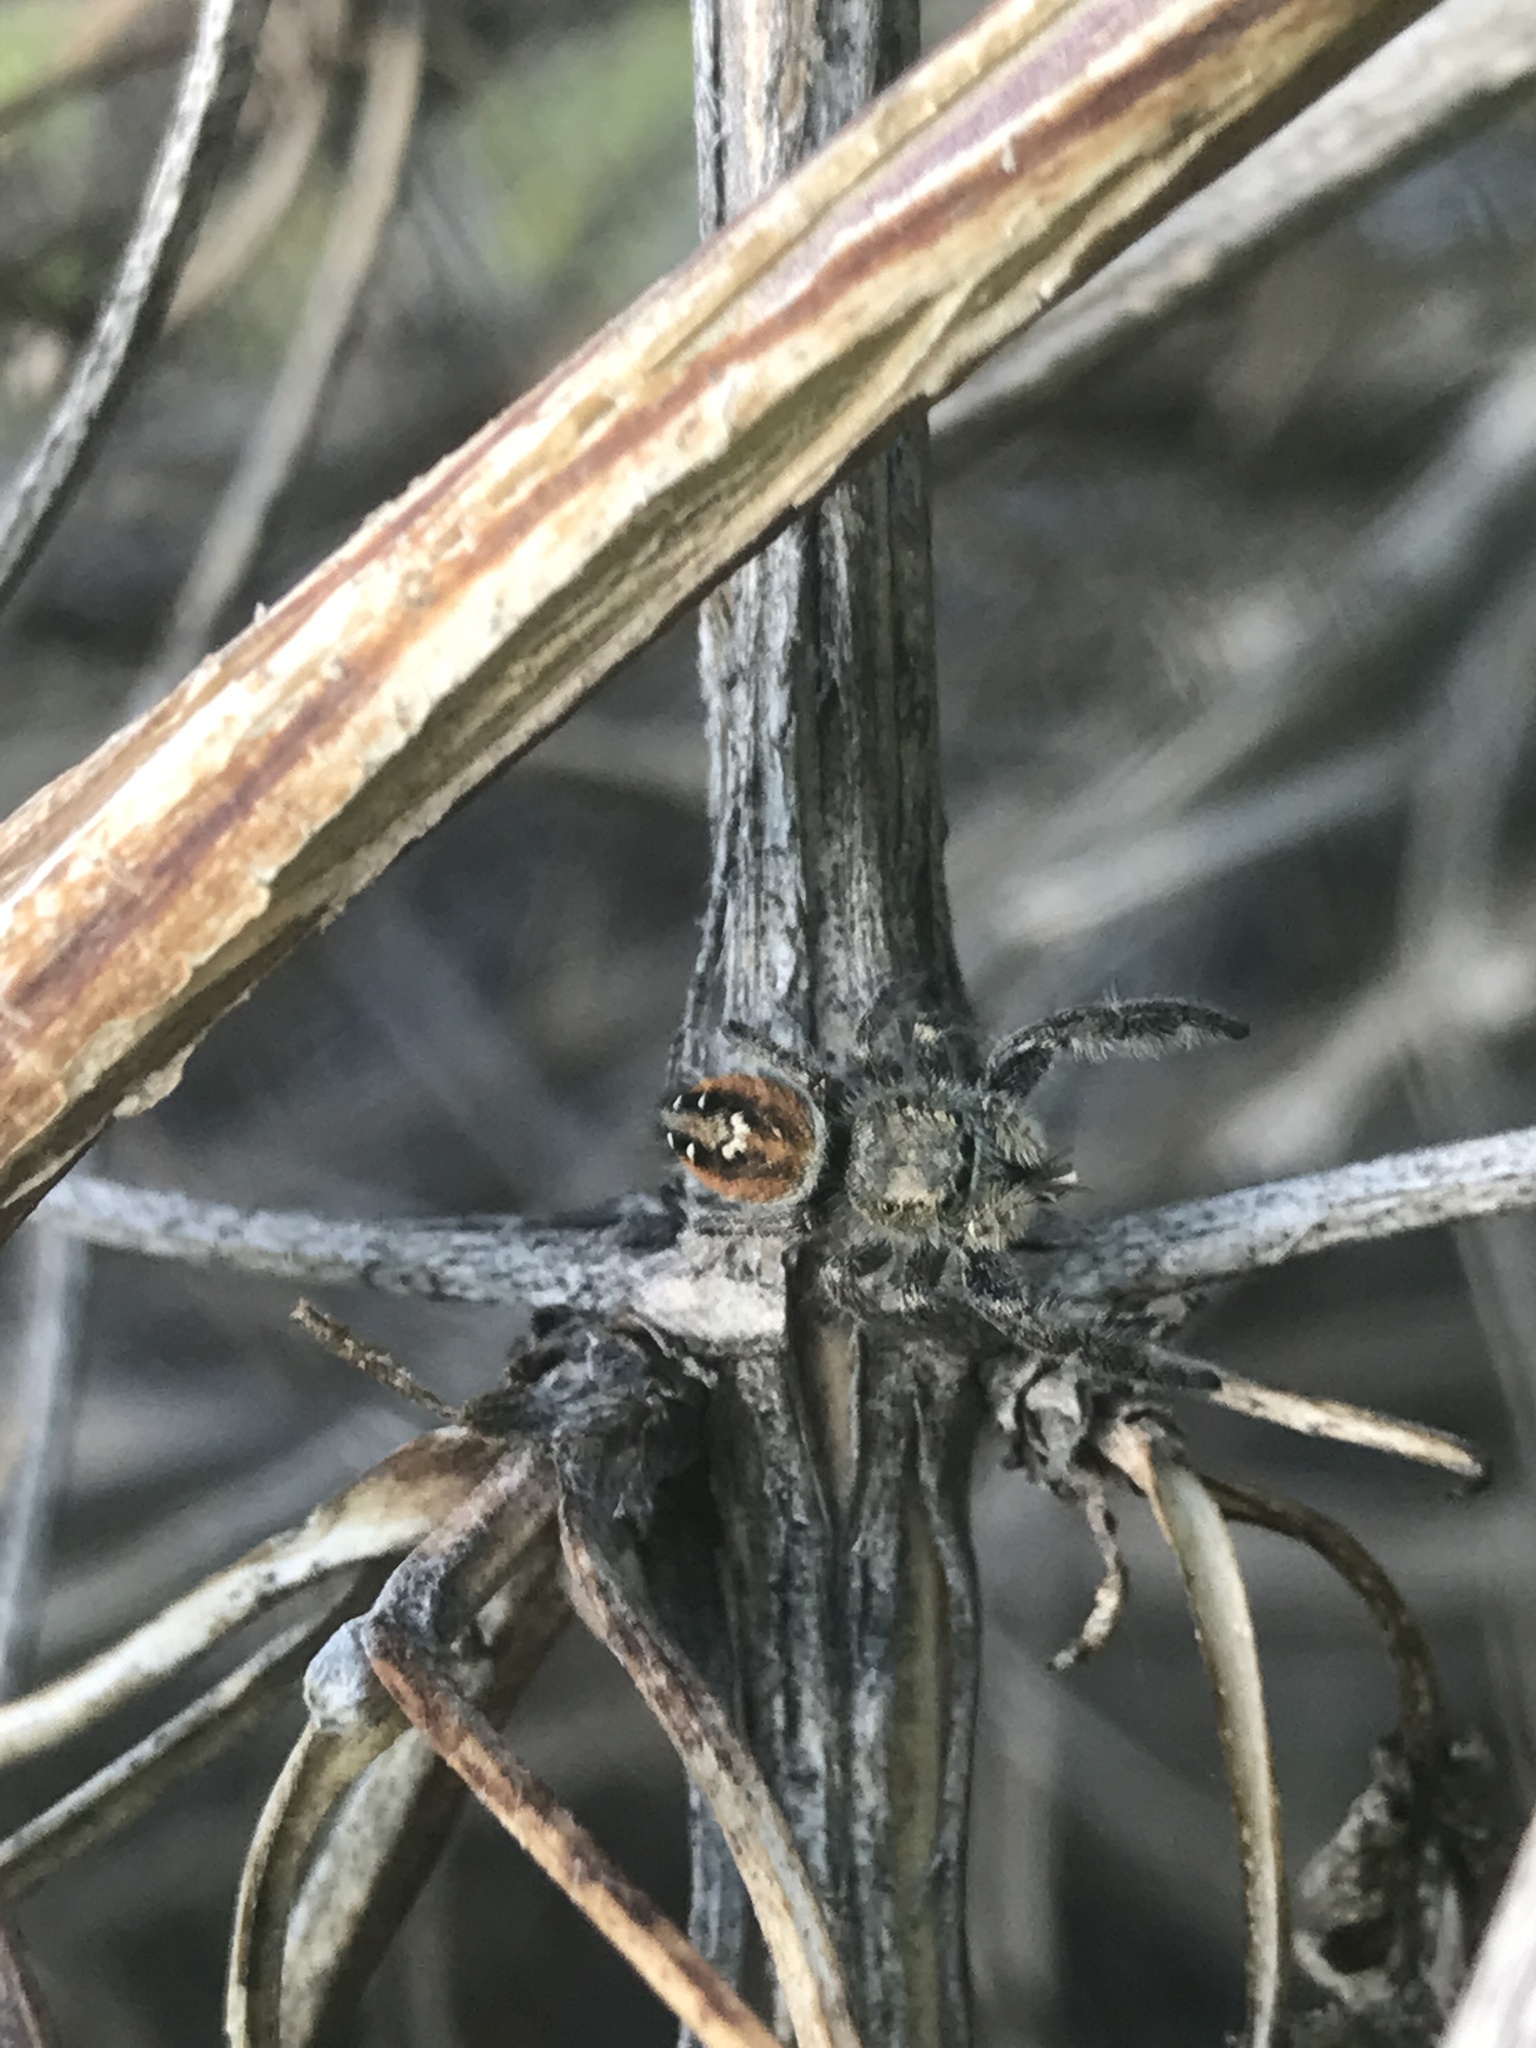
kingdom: Animalia
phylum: Arthropoda
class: Arachnida
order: Araneae
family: Salticidae
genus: Phidippus
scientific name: Phidippus johnsoni
